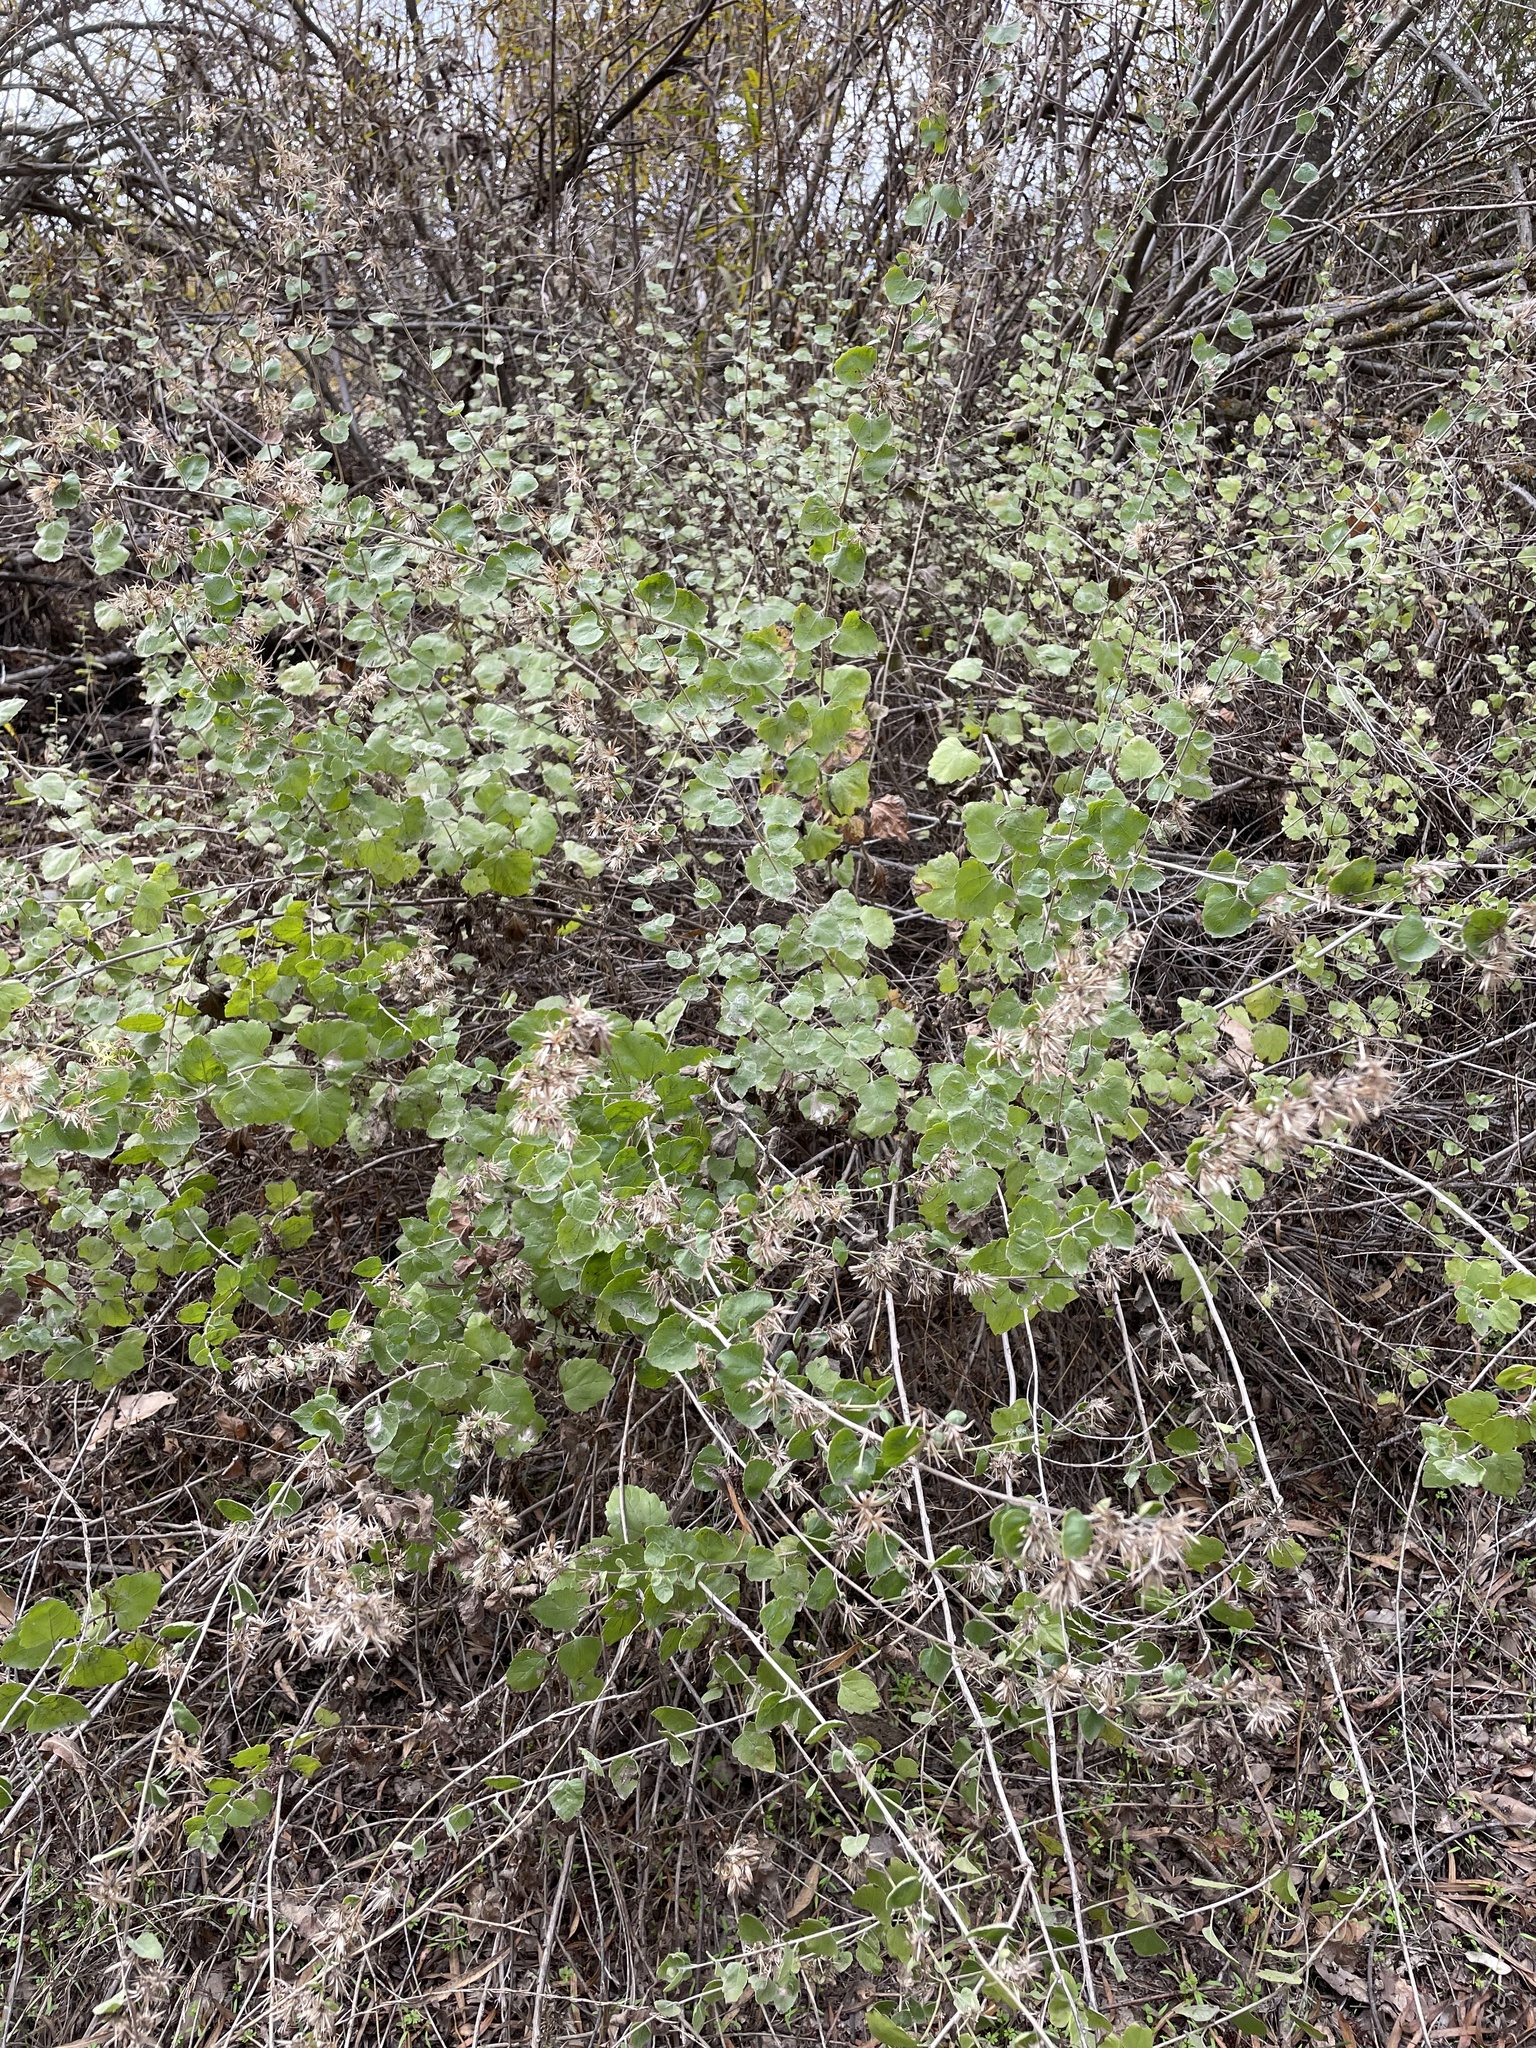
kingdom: Plantae
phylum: Tracheophyta
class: Magnoliopsida
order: Asterales
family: Asteraceae
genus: Brickellia
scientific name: Brickellia californica
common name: California brickellbush
